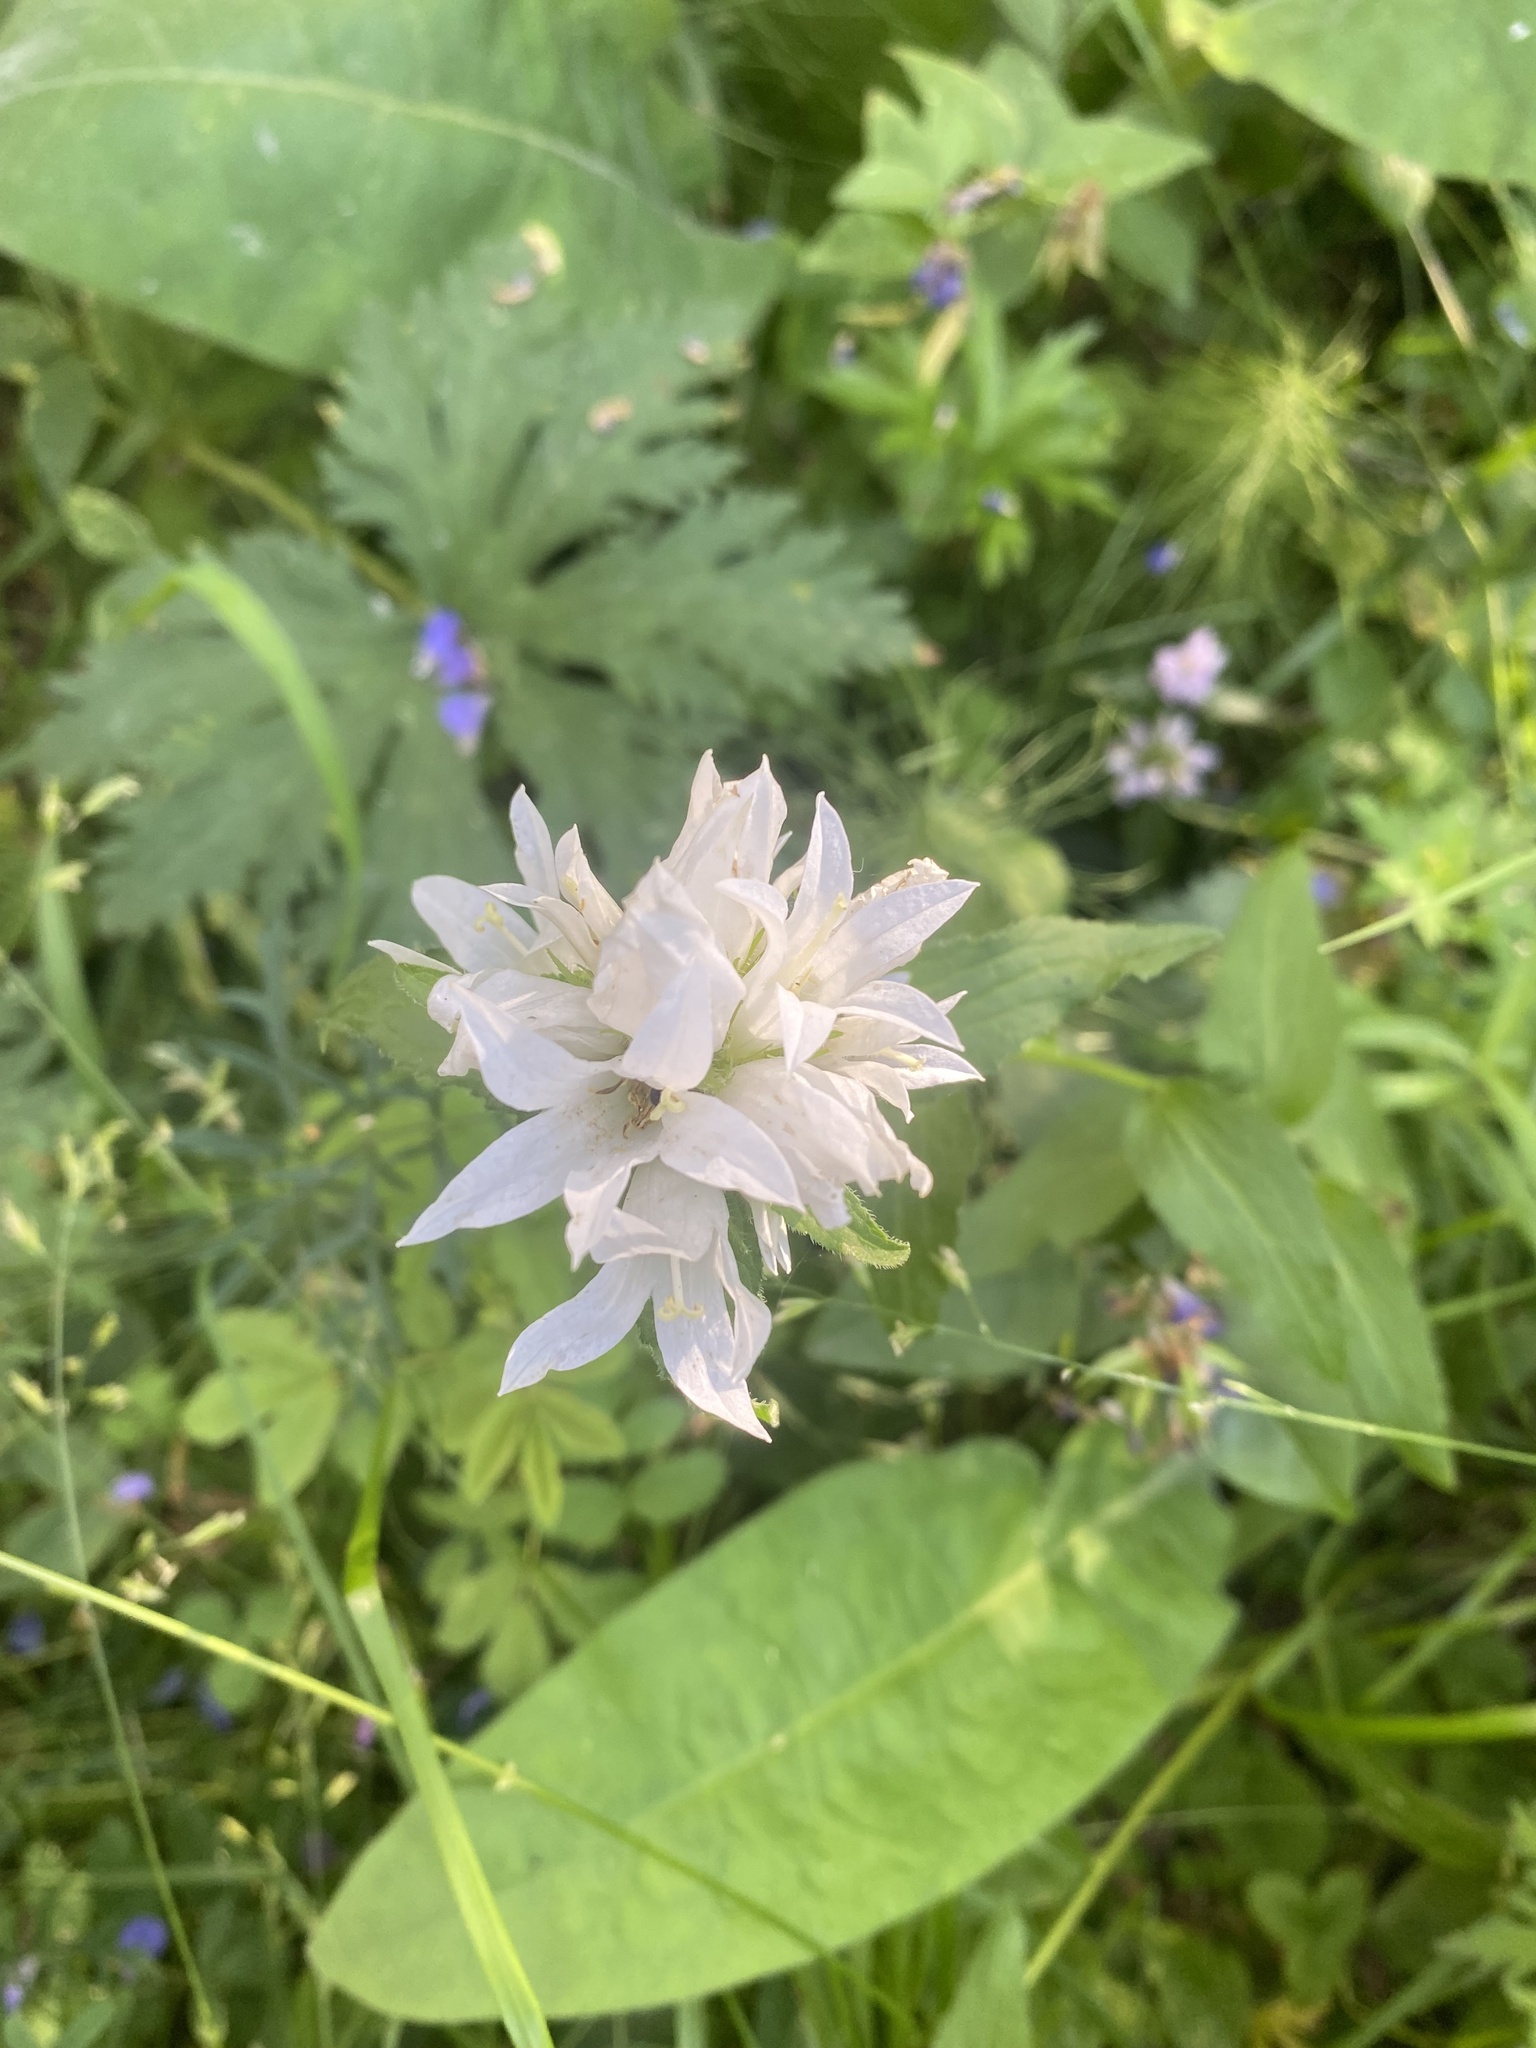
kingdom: Plantae
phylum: Tracheophyta
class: Magnoliopsida
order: Asterales
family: Campanulaceae
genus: Campanula
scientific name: Campanula glomerata
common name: Clustered bellflower
